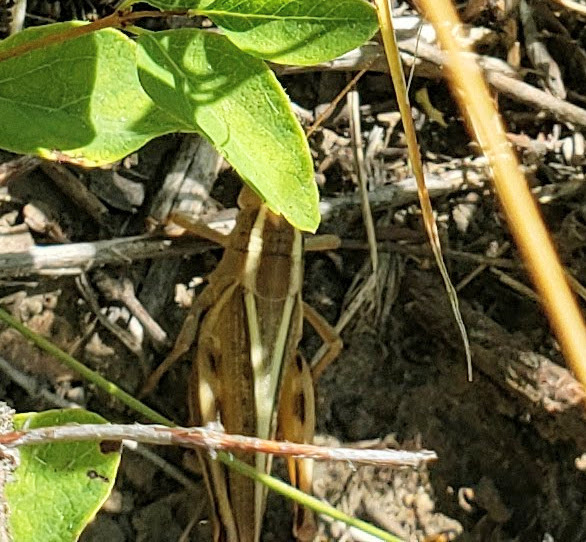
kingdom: Animalia
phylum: Arthropoda
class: Insecta
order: Orthoptera
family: Acrididae
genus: Melanoplus
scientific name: Melanoplus bivittatus
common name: Two-striped grasshopper
